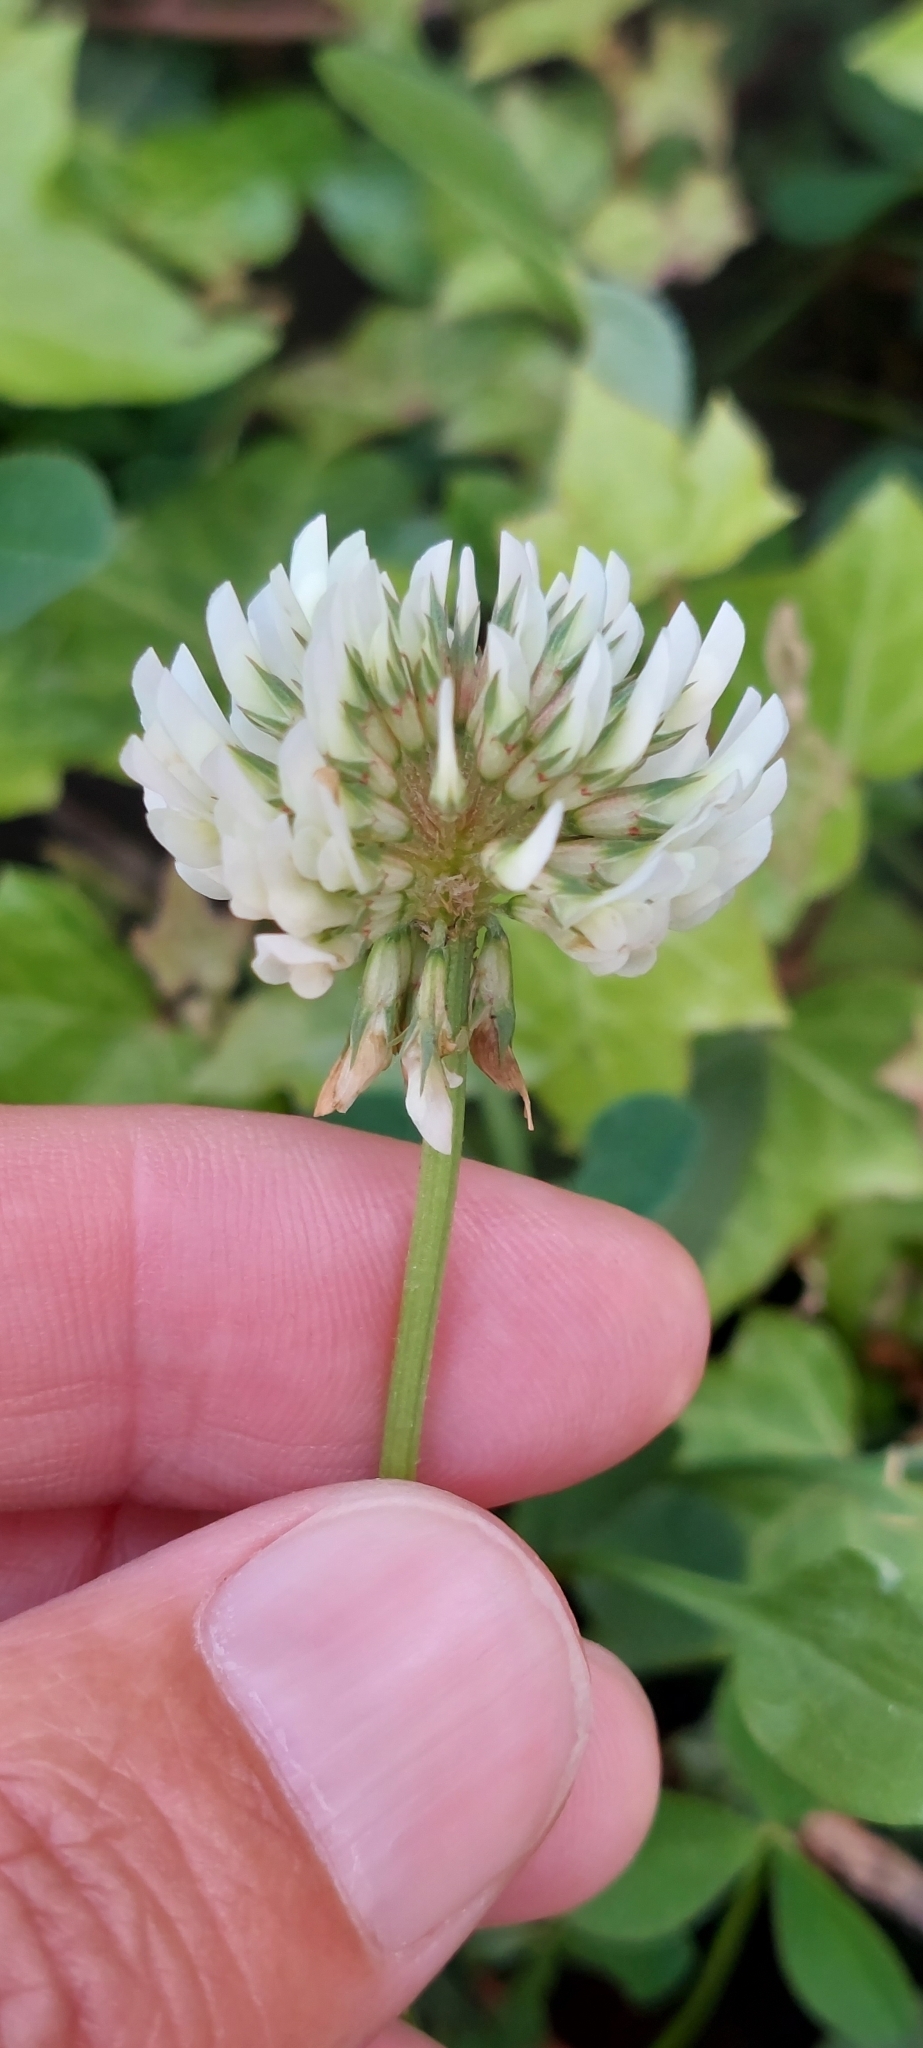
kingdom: Plantae
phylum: Tracheophyta
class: Magnoliopsida
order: Fabales
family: Fabaceae
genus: Trifolium
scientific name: Trifolium repens
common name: White clover
